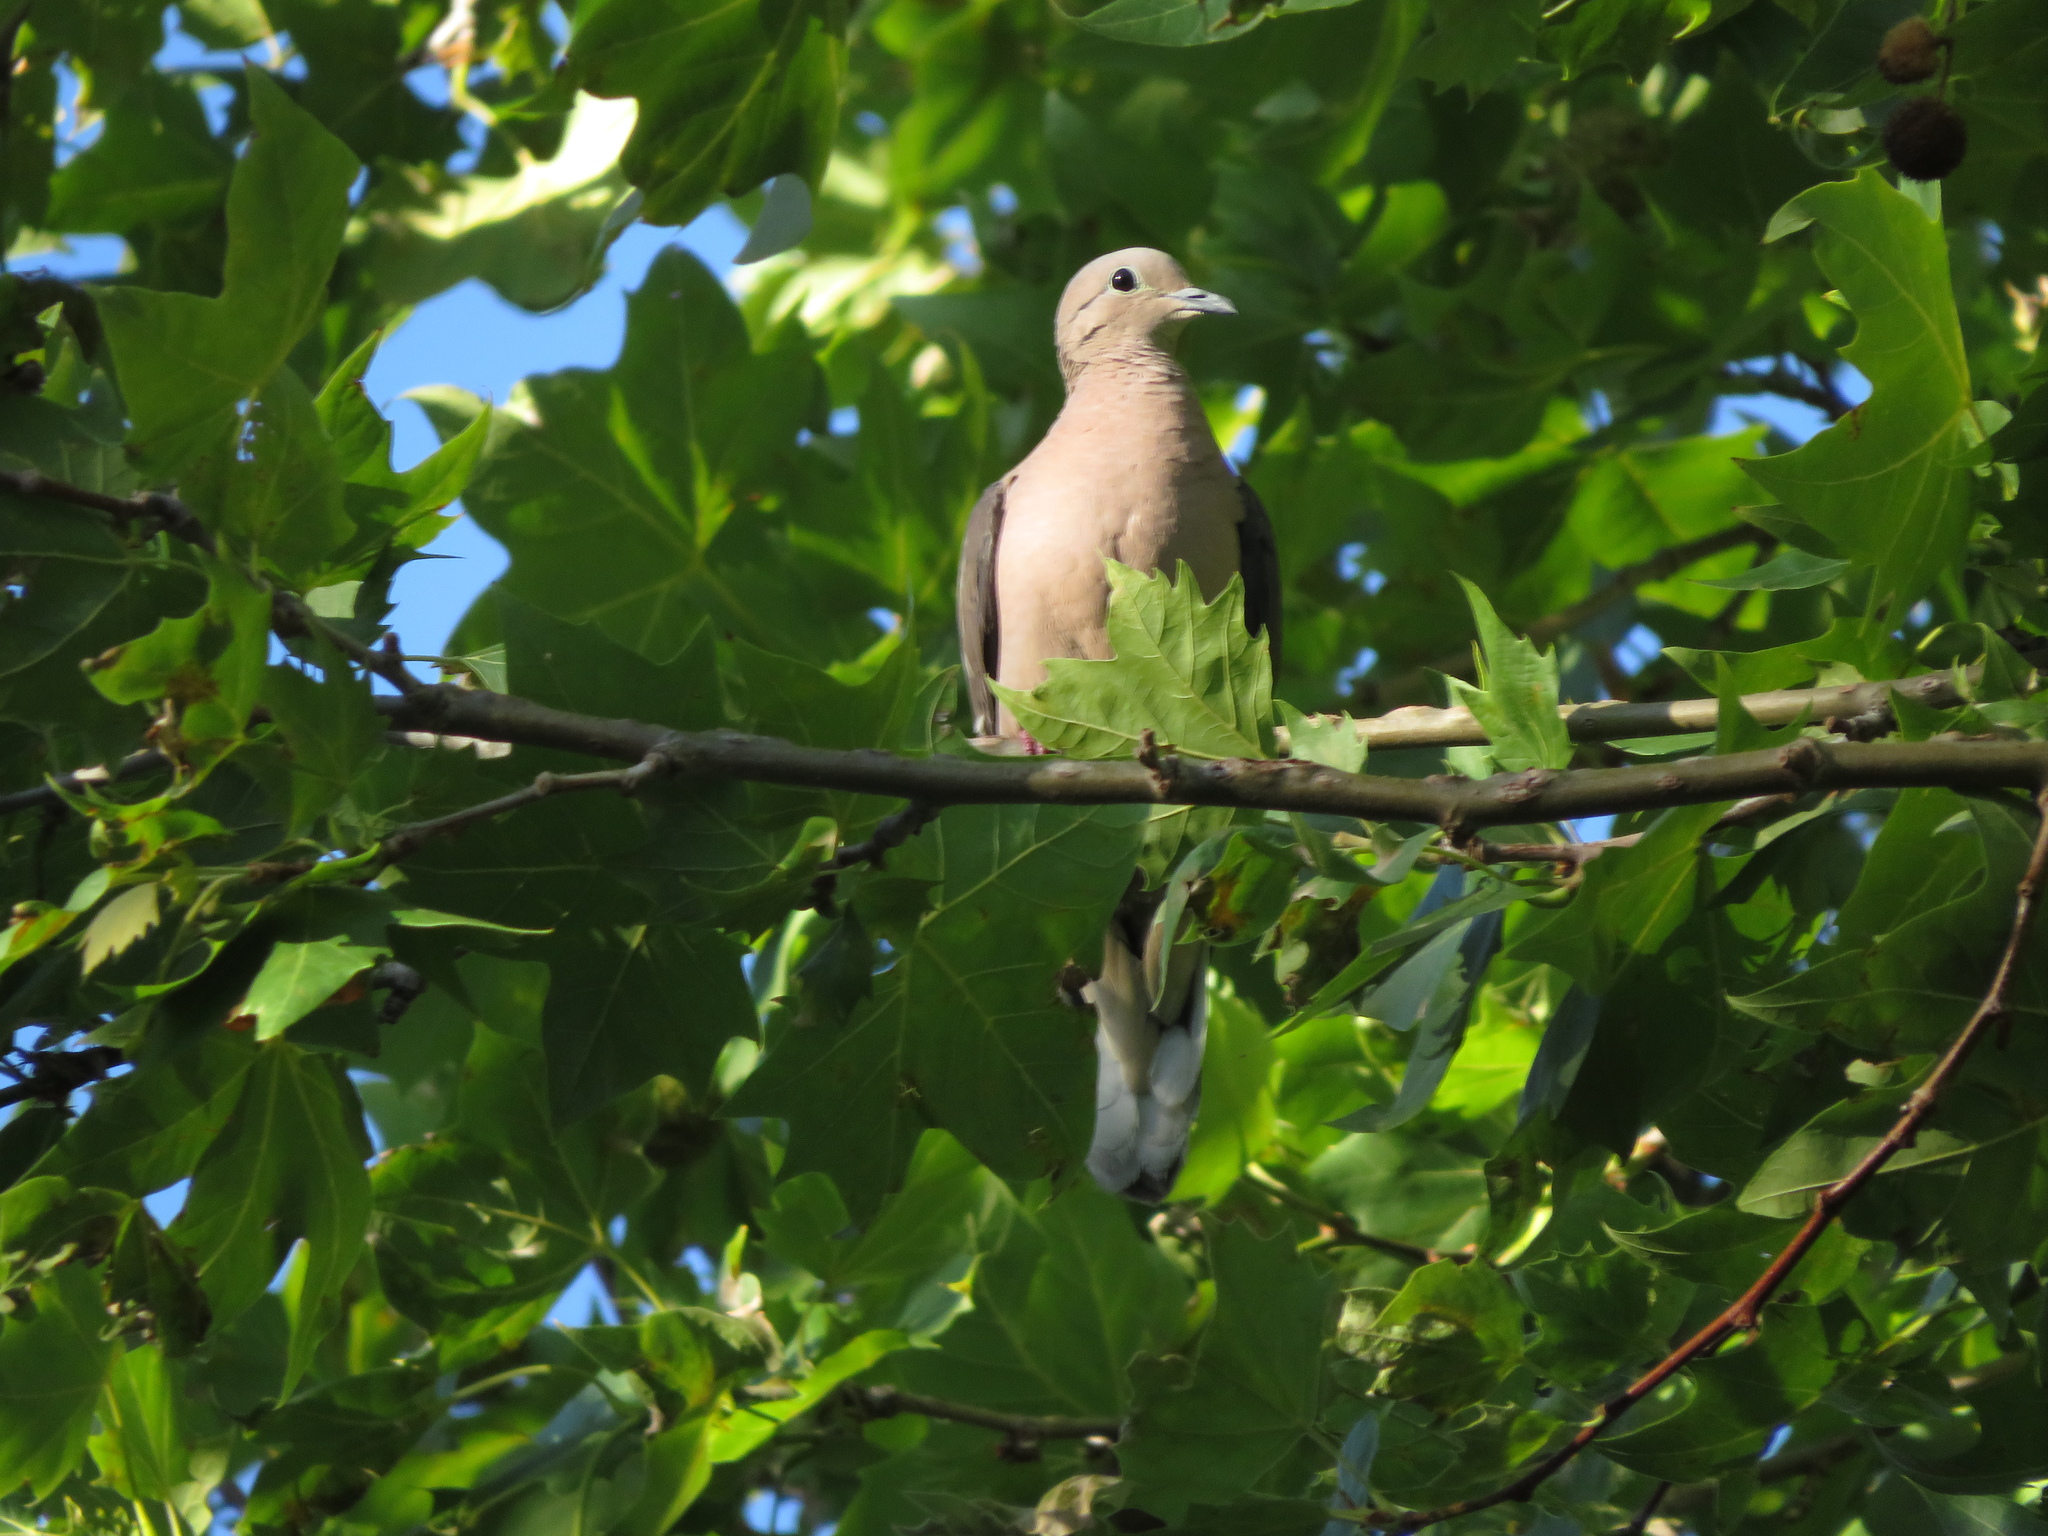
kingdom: Animalia
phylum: Chordata
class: Aves
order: Columbiformes
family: Columbidae
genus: Zenaida
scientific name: Zenaida auriculata
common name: Eared dove
